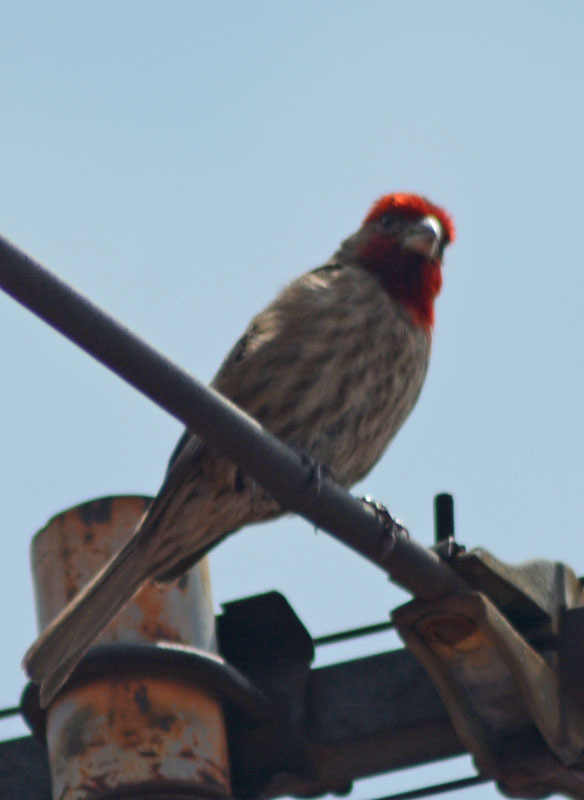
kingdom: Animalia
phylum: Chordata
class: Aves
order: Passeriformes
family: Fringillidae
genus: Haemorhous
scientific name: Haemorhous mexicanus
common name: House finch
